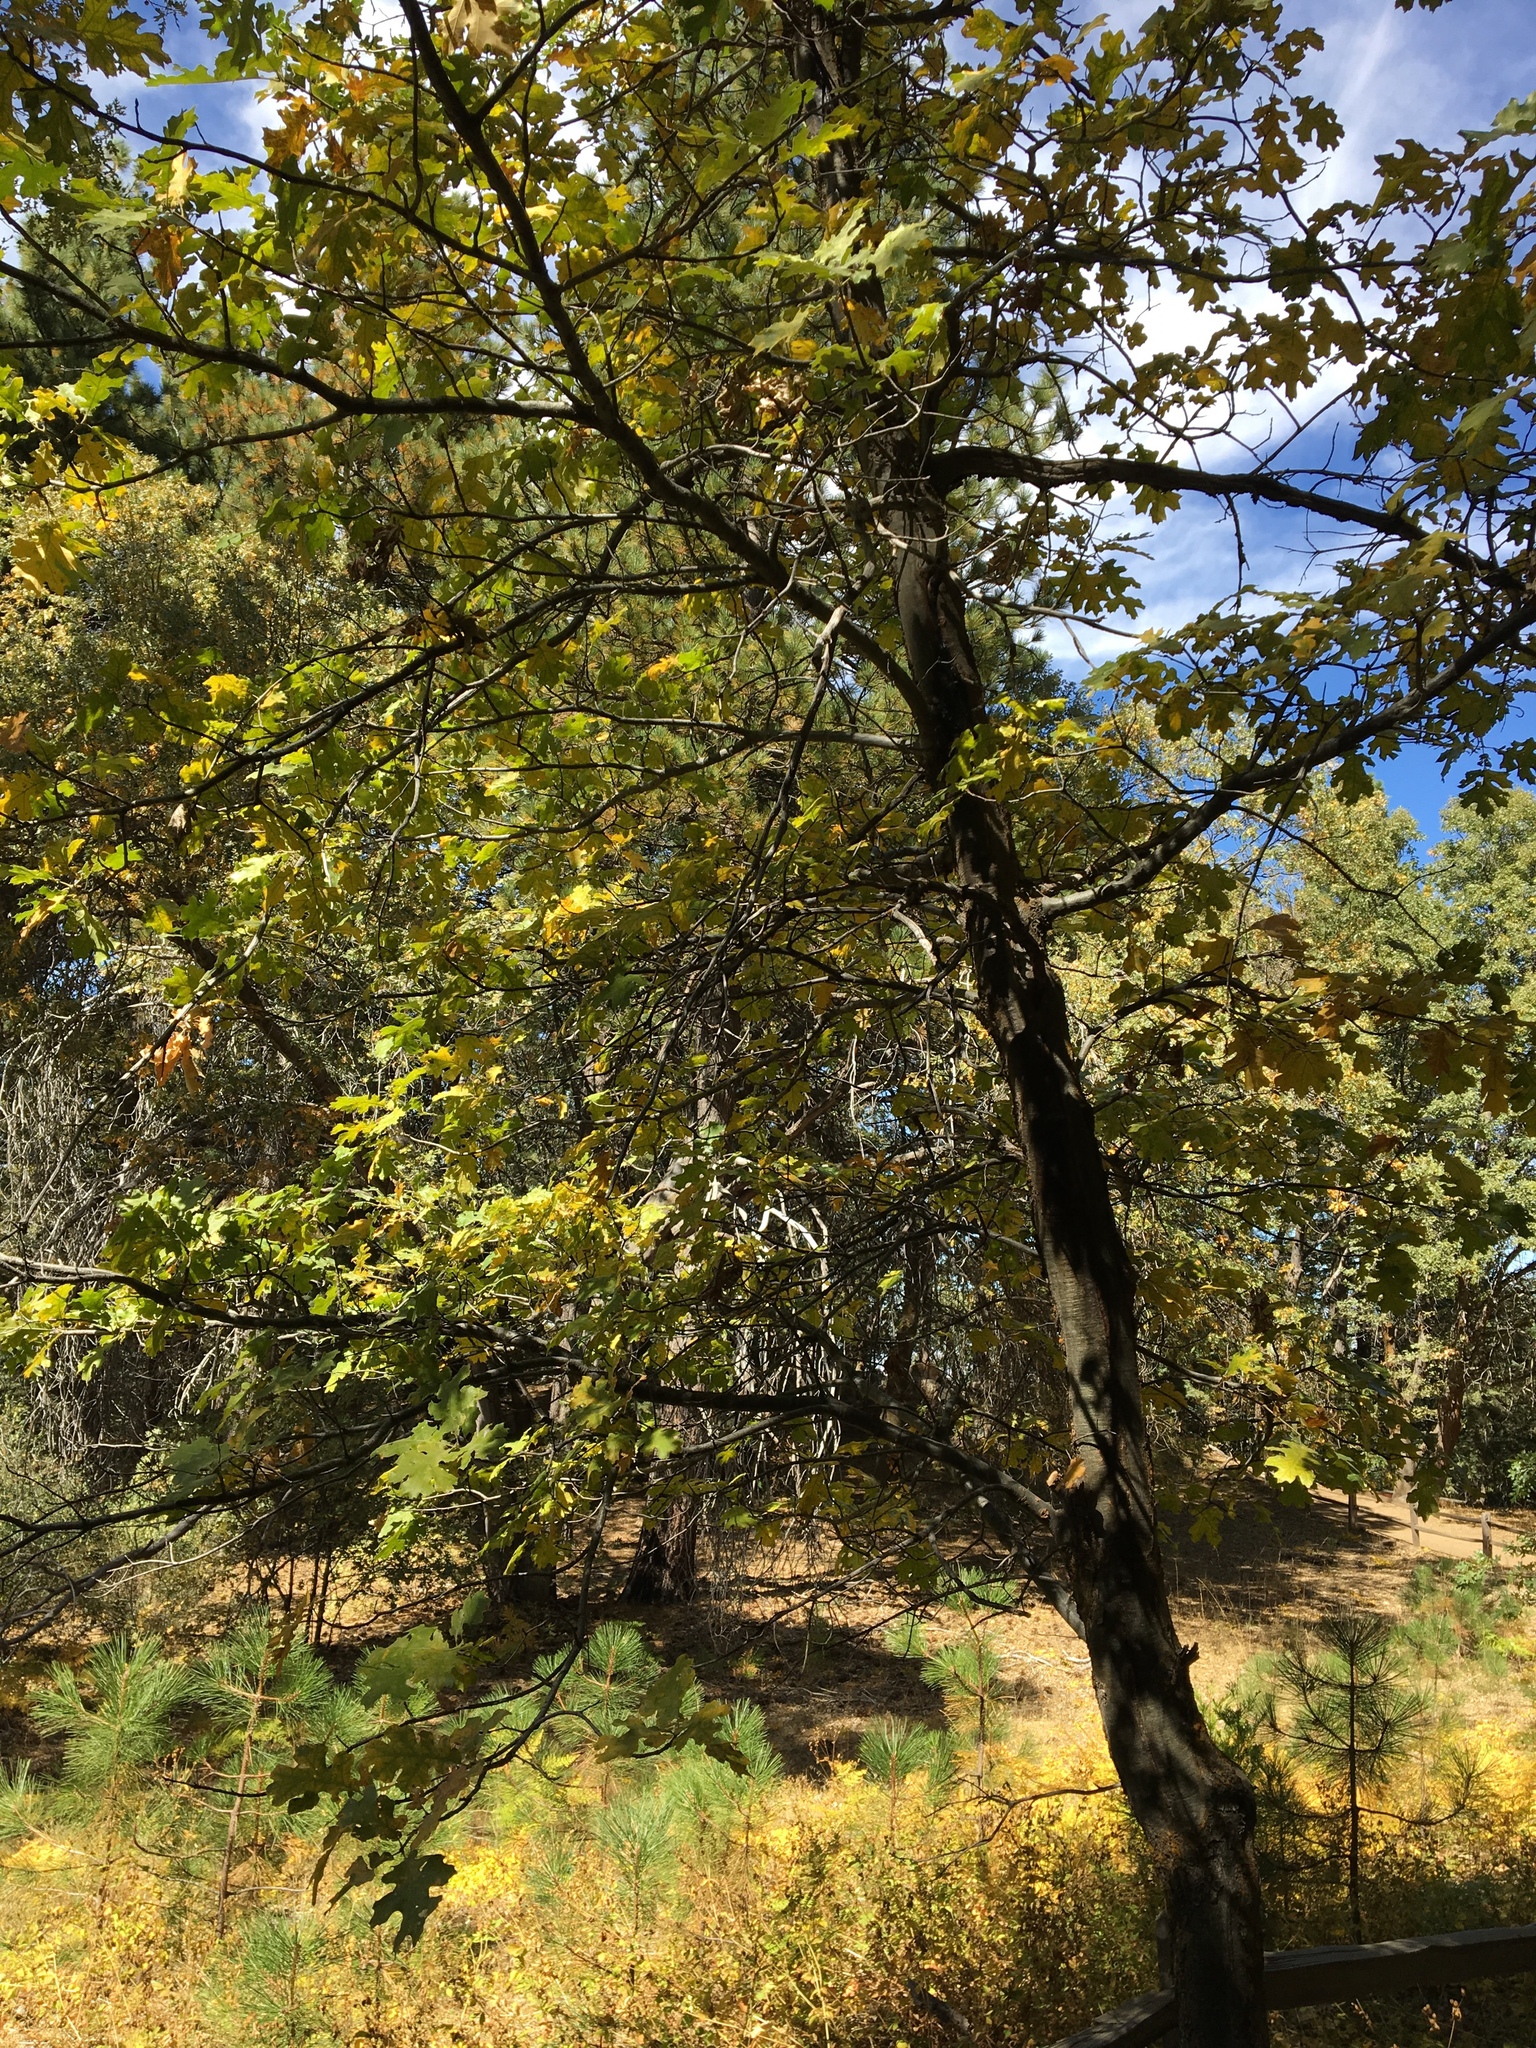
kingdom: Plantae
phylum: Tracheophyta
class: Magnoliopsida
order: Fagales
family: Fagaceae
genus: Quercus
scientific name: Quercus kelloggii
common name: California black oak
